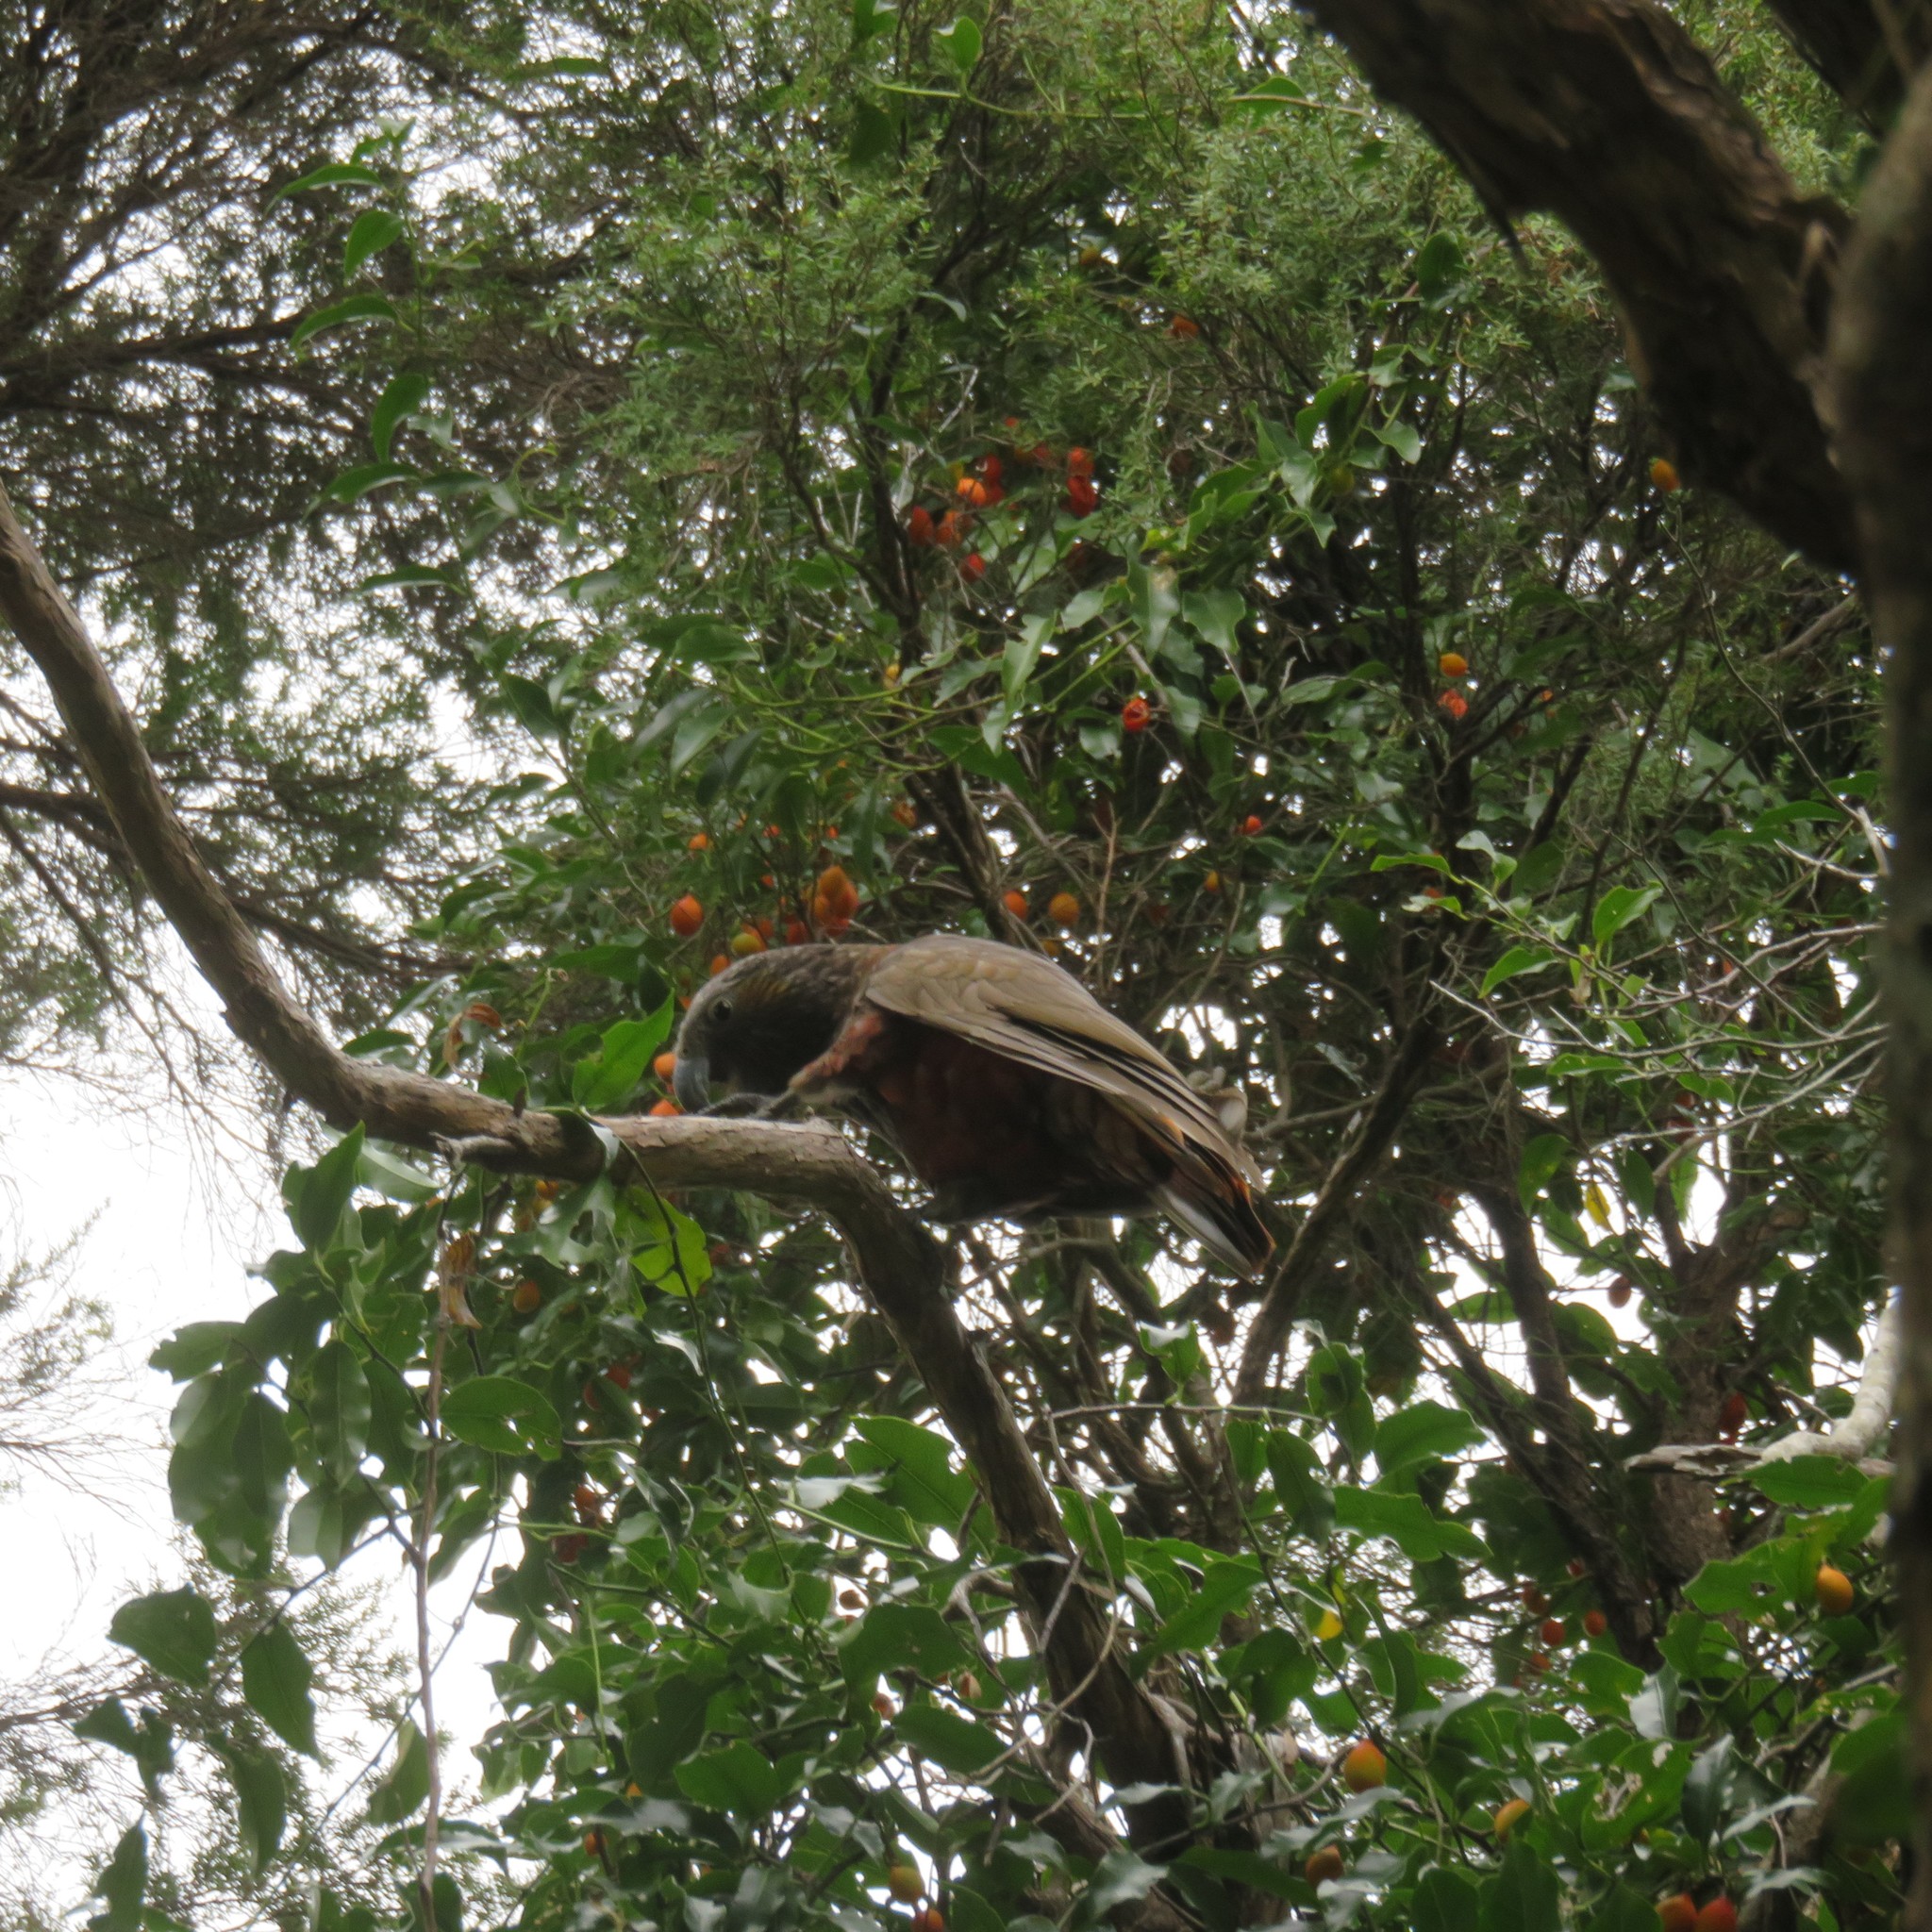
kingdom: Plantae
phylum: Tracheophyta
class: Magnoliopsida
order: Malpighiales
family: Passifloraceae
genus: Passiflora
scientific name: Passiflora tetrandra
